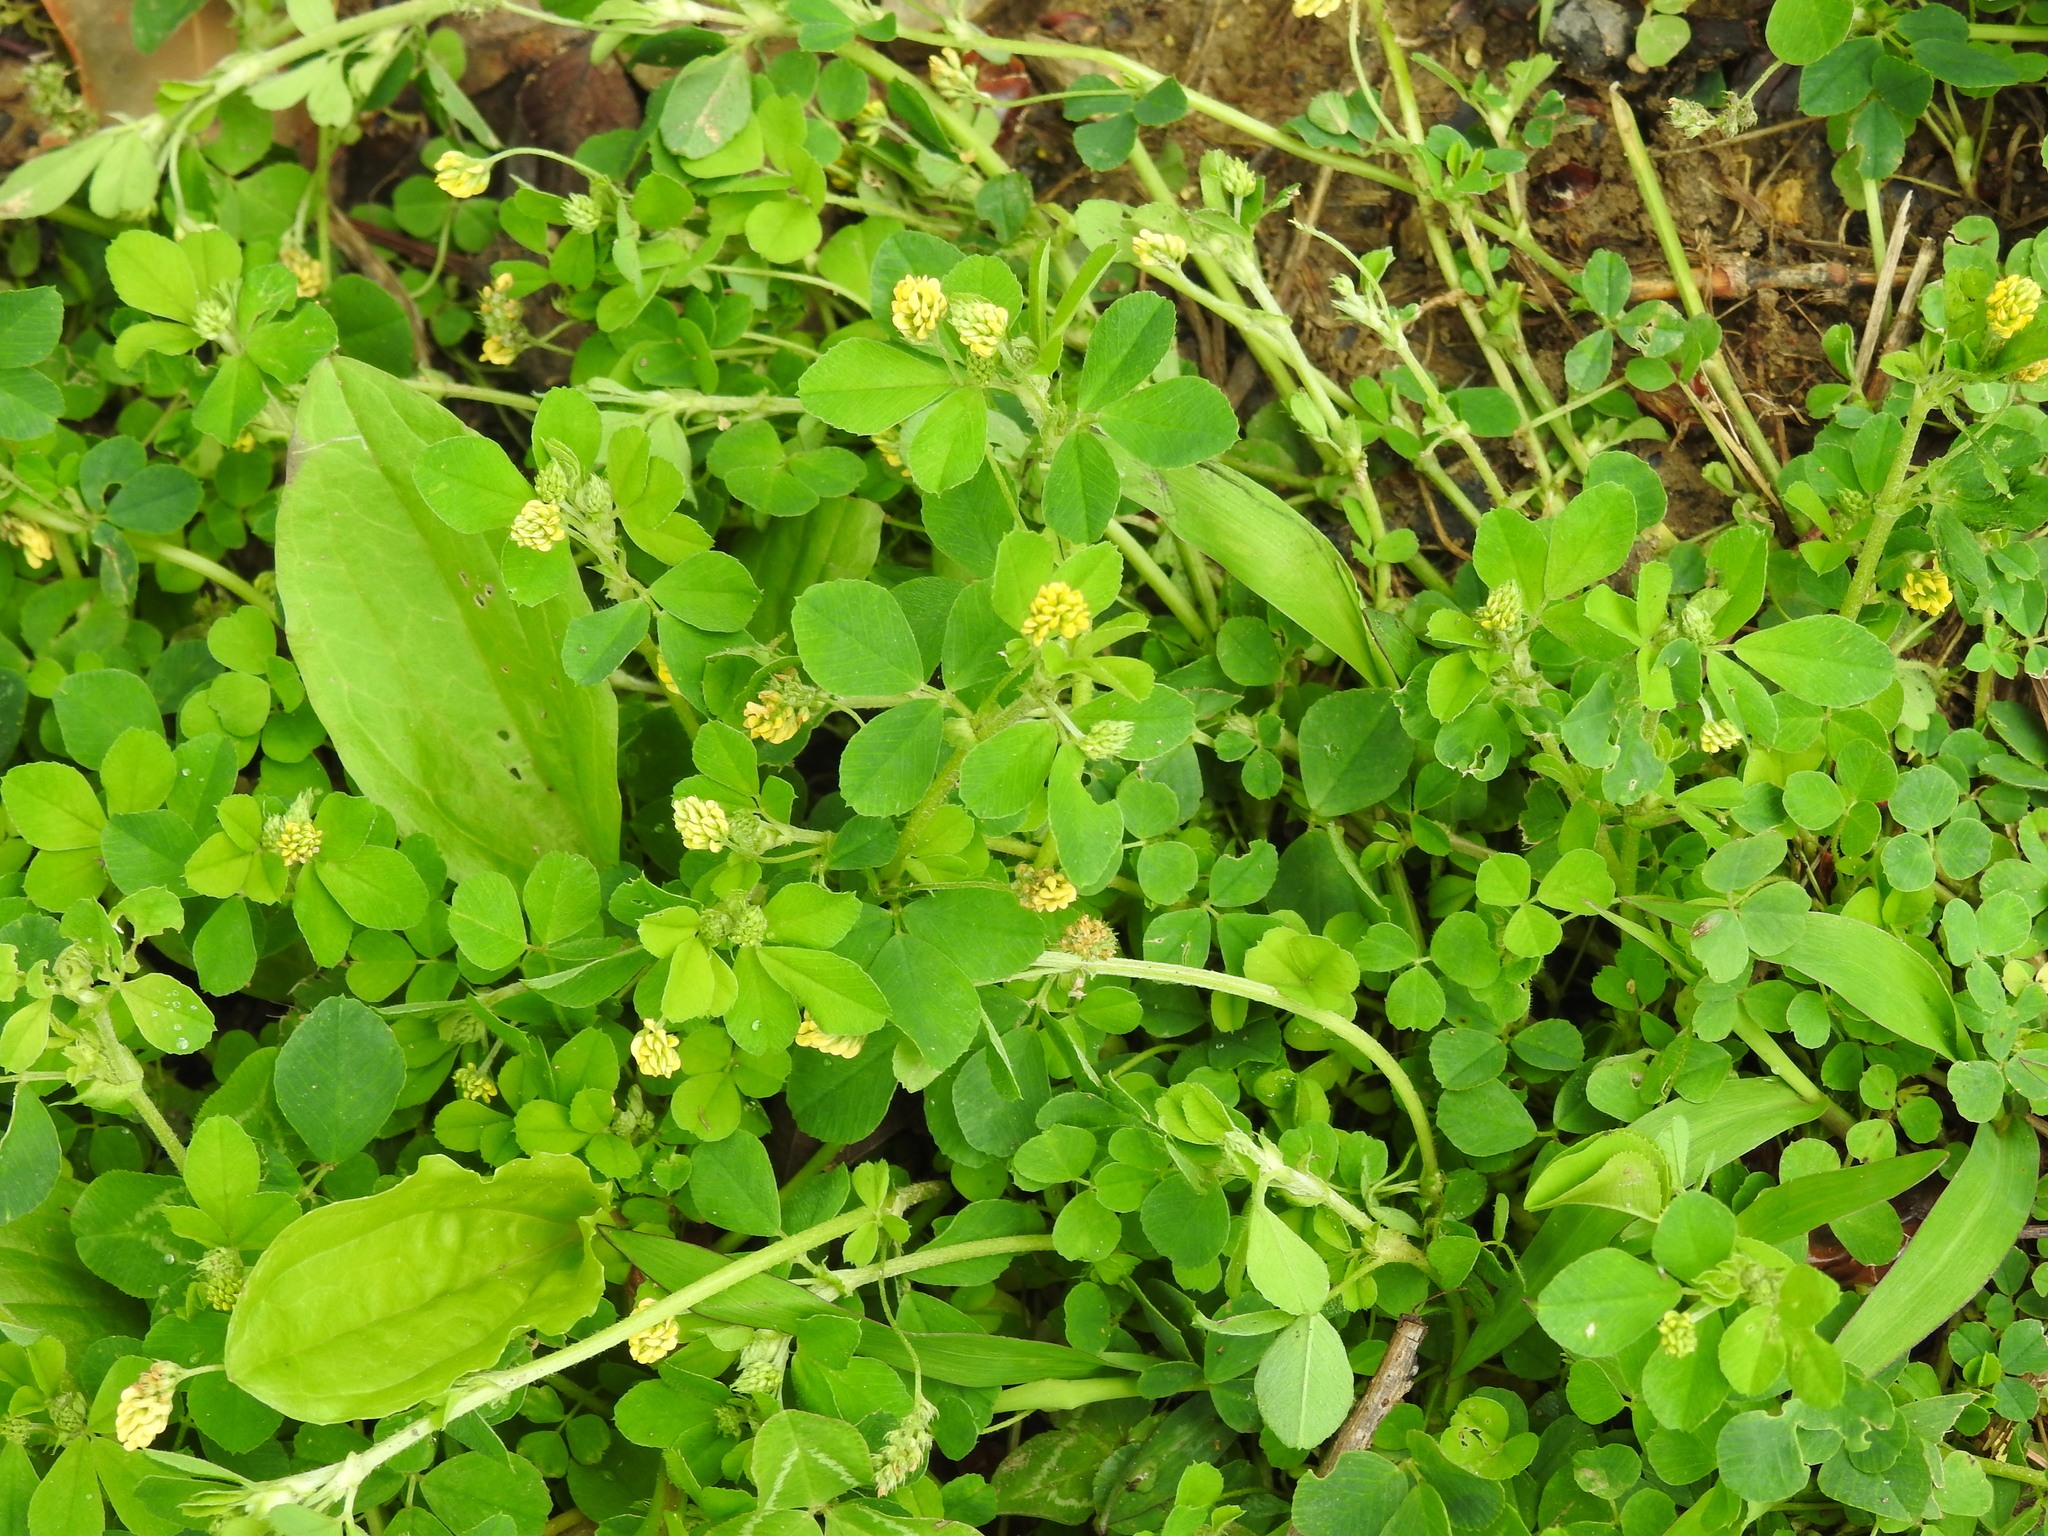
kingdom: Plantae
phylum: Tracheophyta
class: Magnoliopsida
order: Fabales
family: Fabaceae
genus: Medicago
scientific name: Medicago lupulina
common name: Black medick
